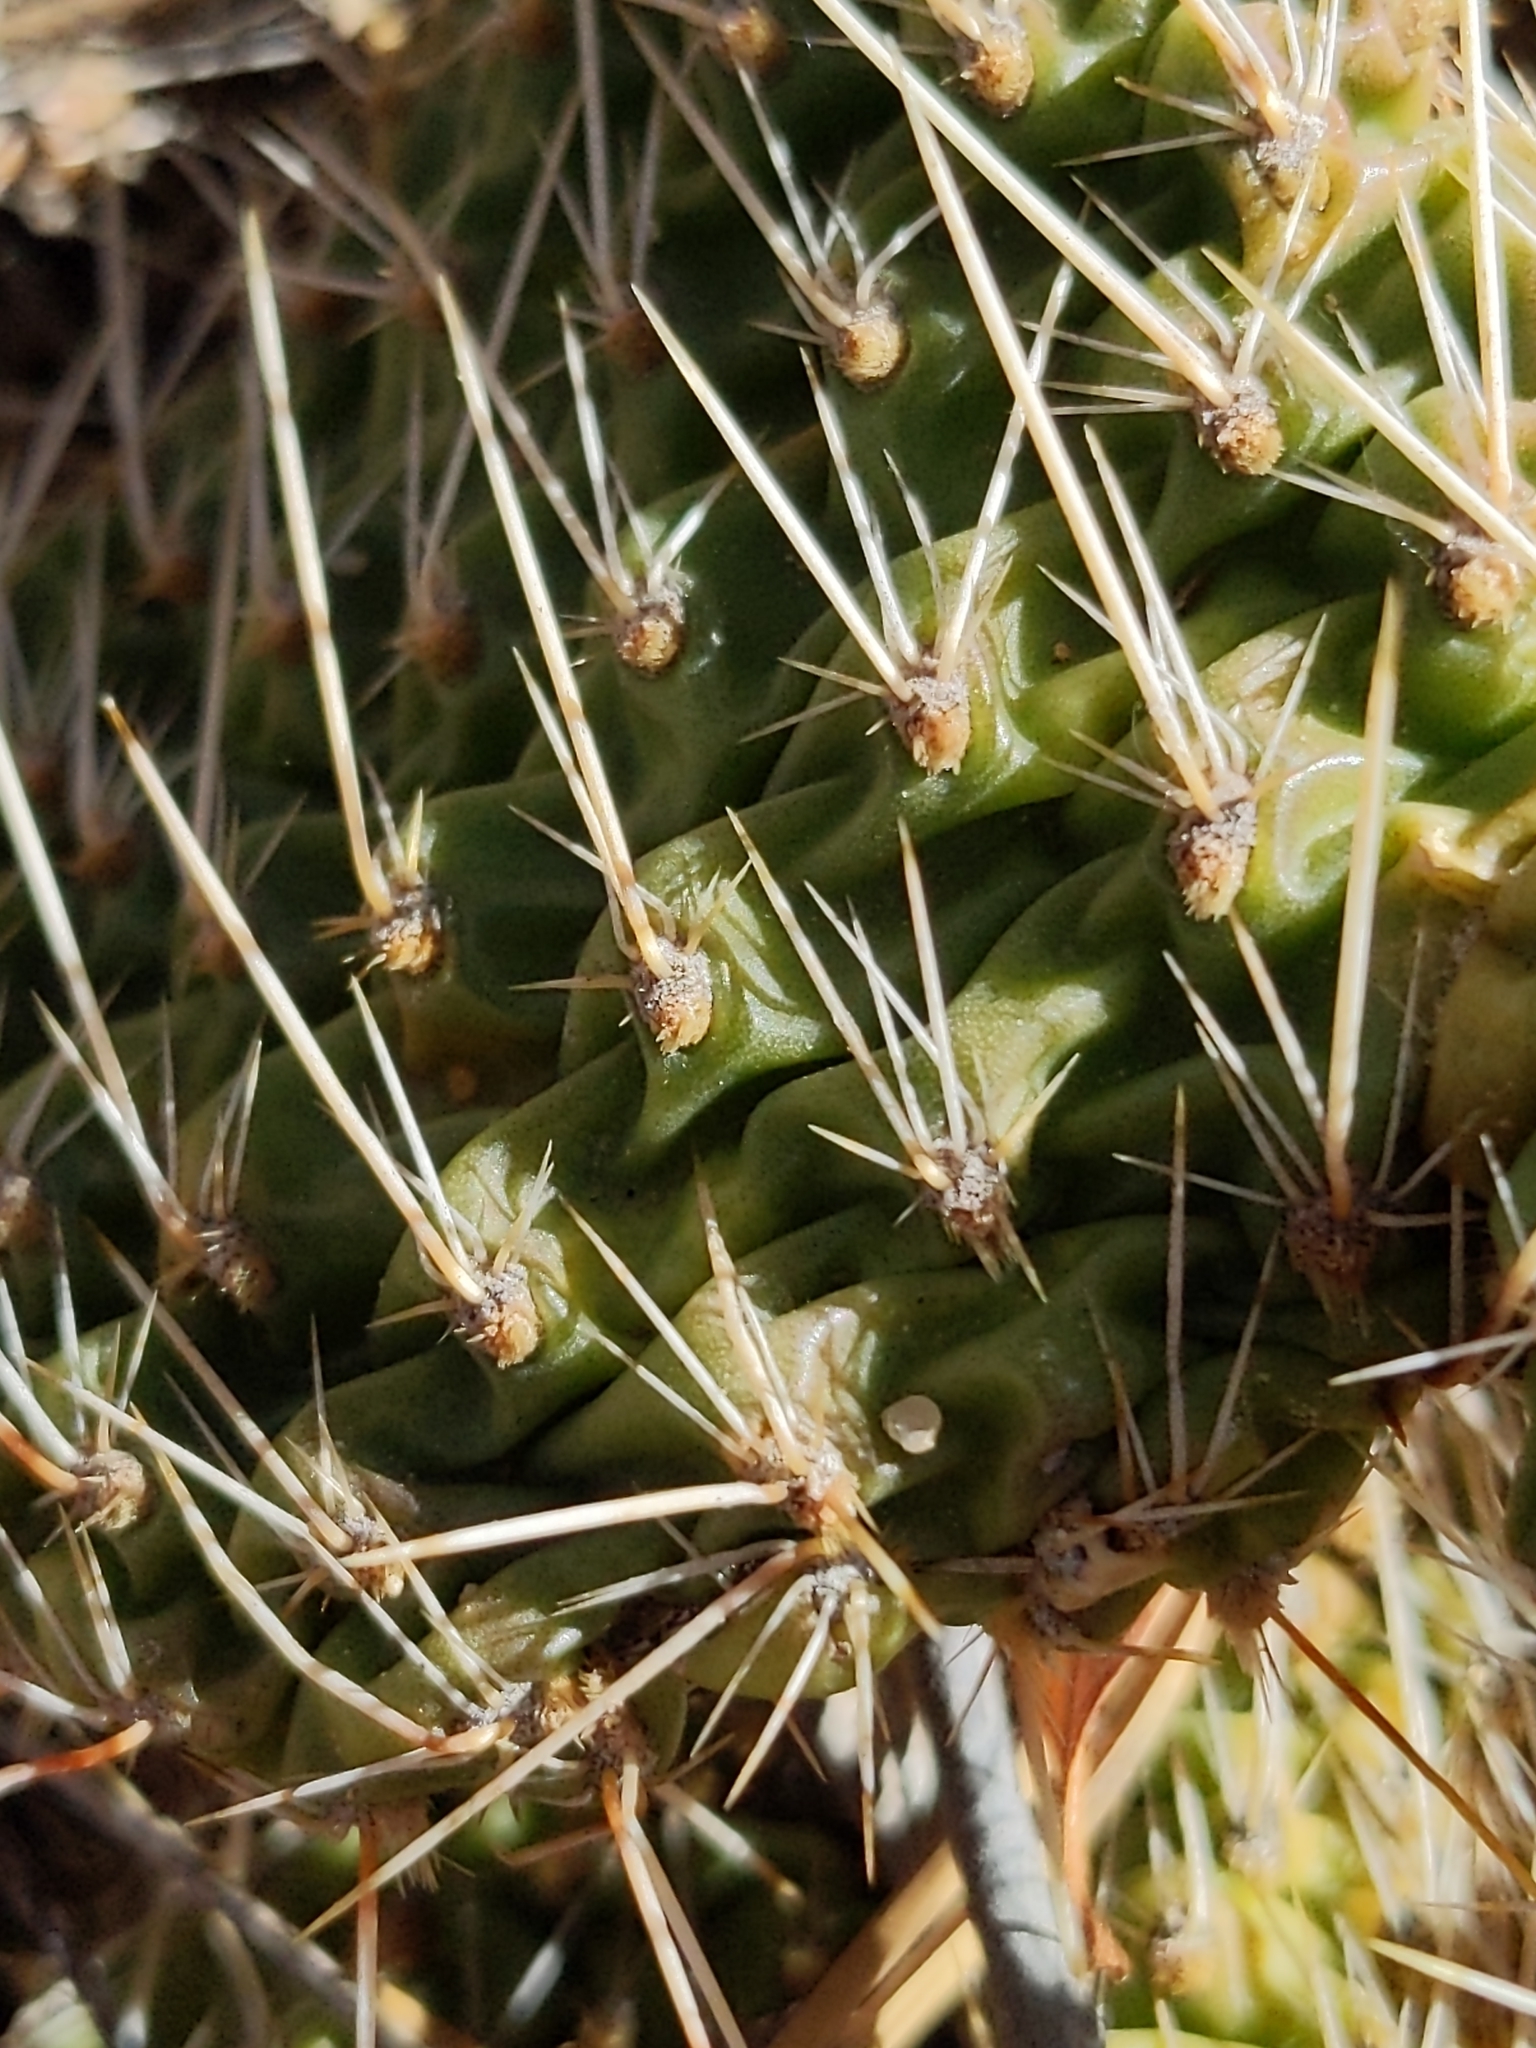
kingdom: Plantae
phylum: Tracheophyta
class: Magnoliopsida
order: Caryophyllales
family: Cactaceae
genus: Opuntia
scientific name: Opuntia polyacantha
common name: Plains prickly-pear
